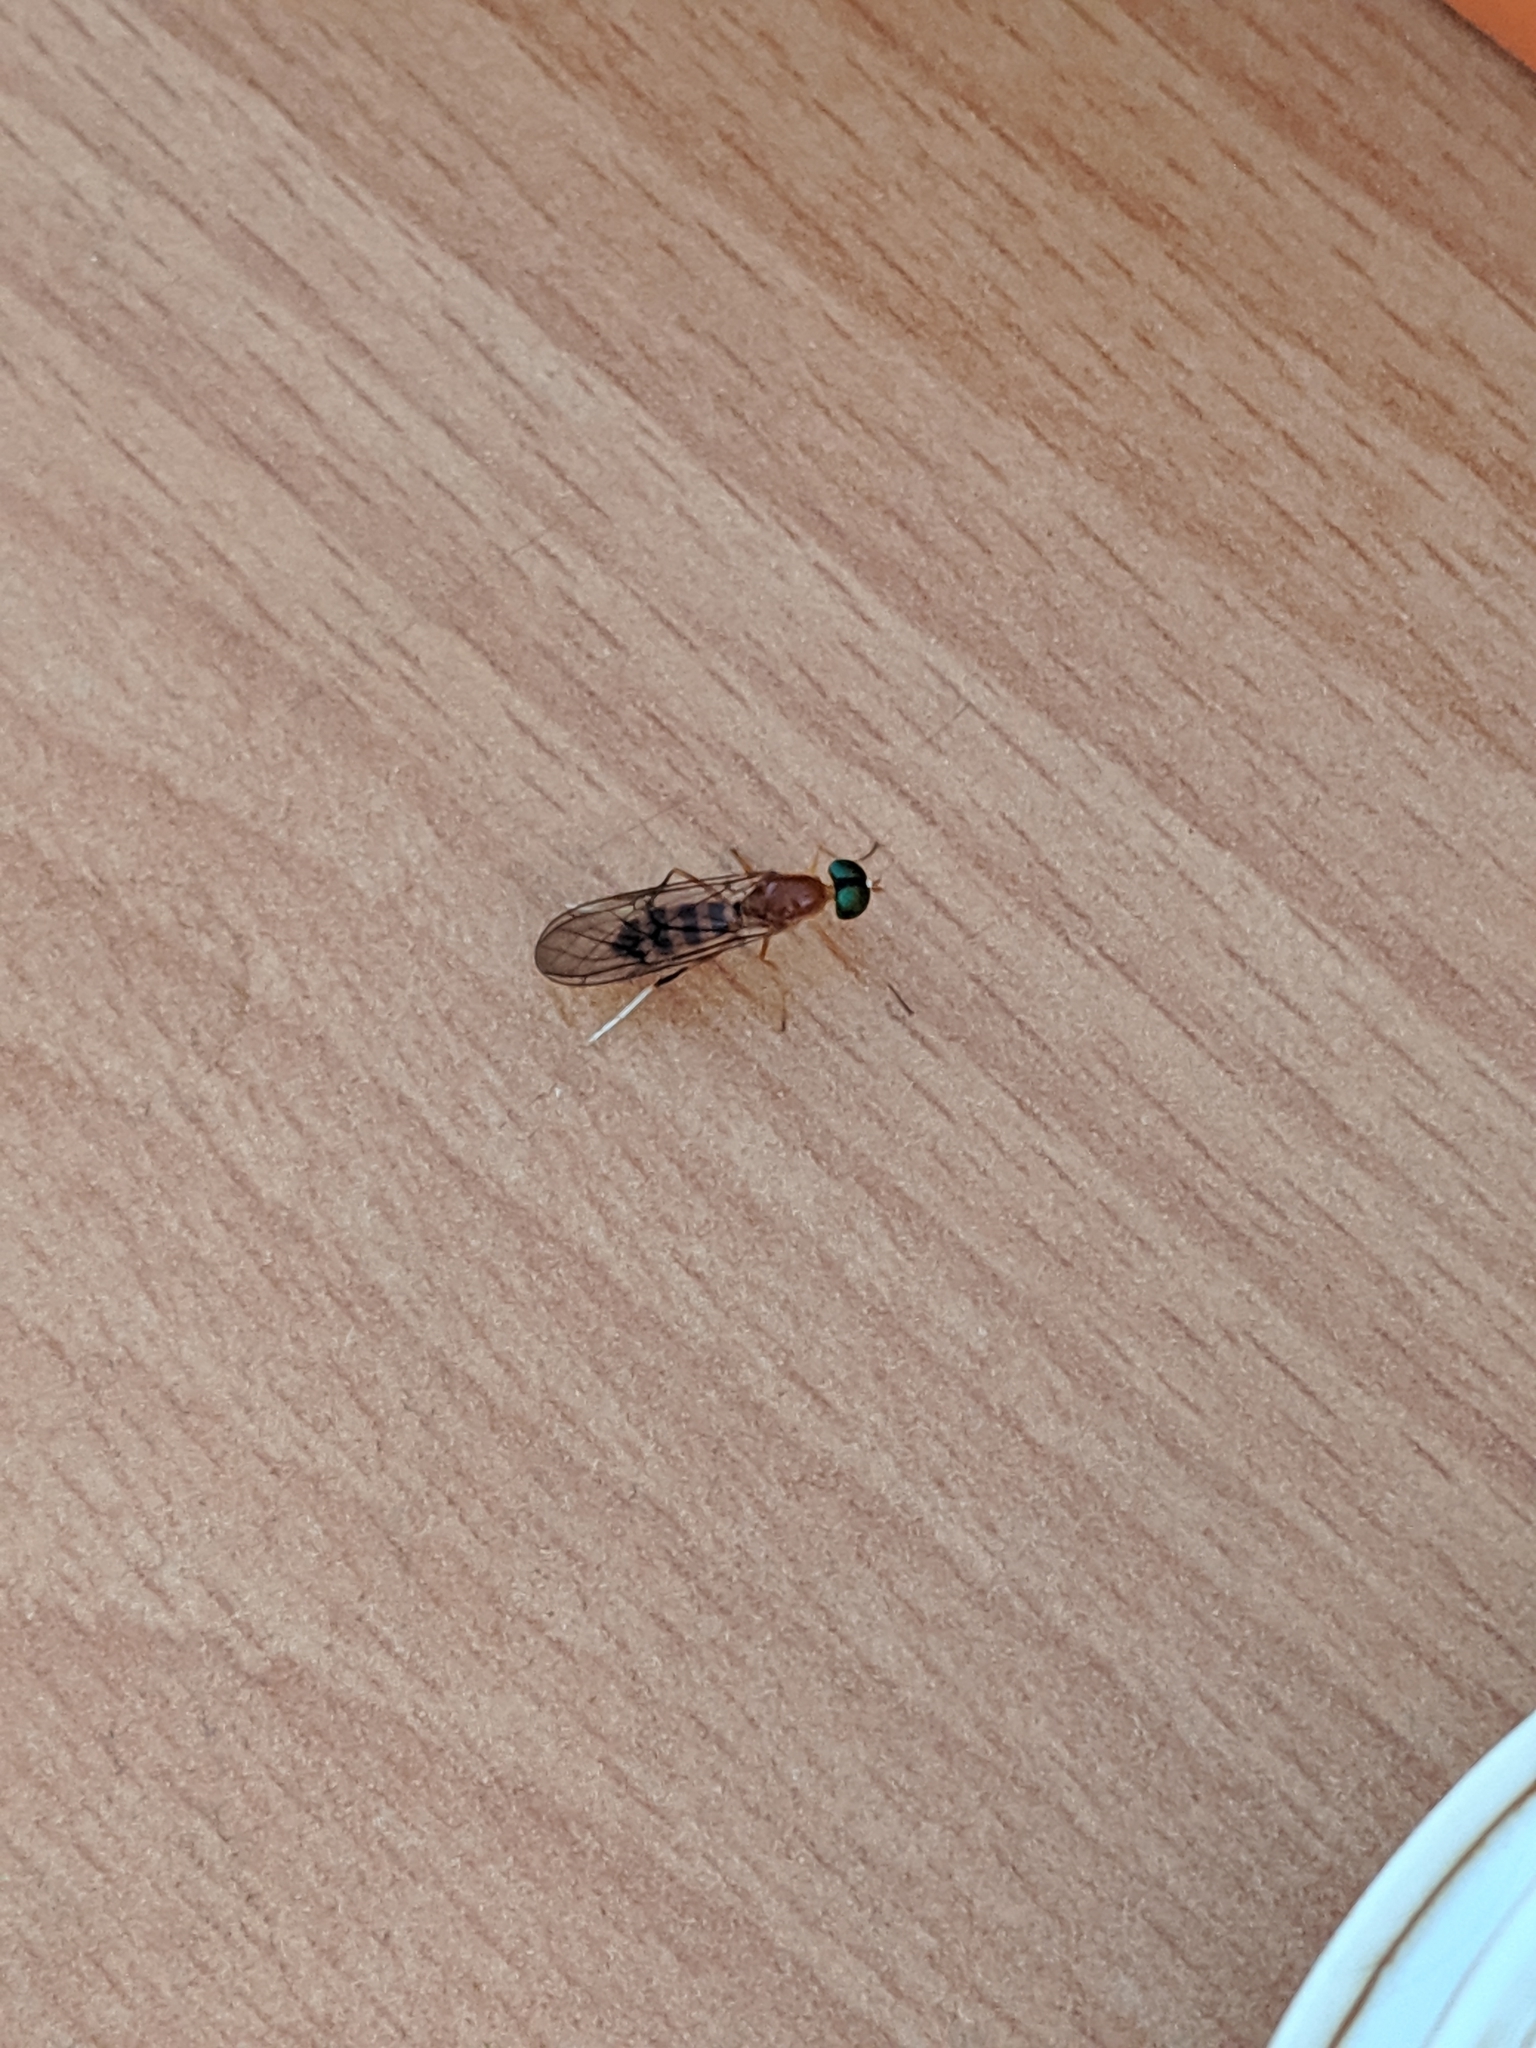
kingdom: Animalia
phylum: Arthropoda
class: Insecta
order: Diptera
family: Stratiomyidae
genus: Ptecticus
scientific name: Ptecticus australis
